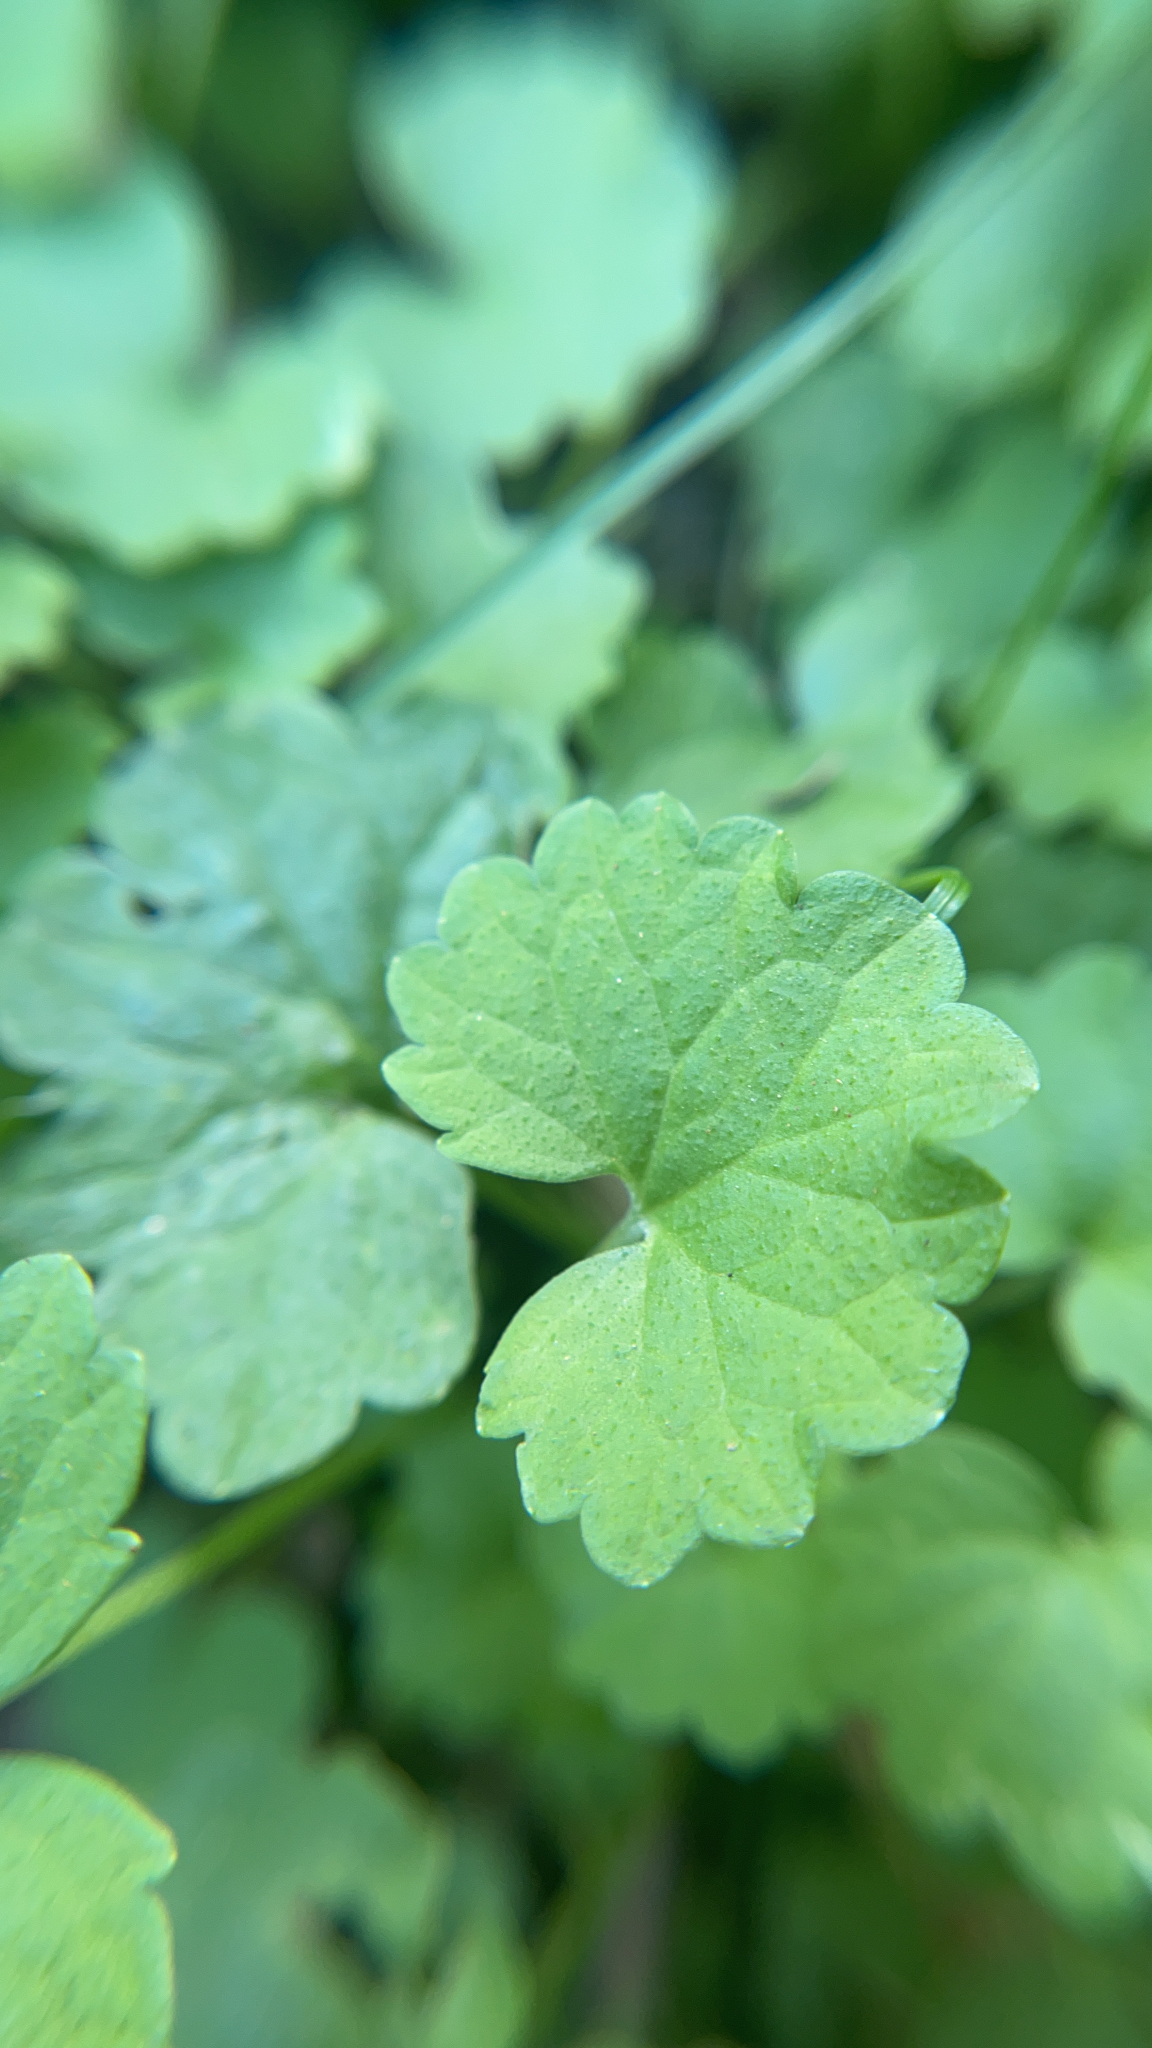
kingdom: Plantae
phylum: Tracheophyta
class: Magnoliopsida
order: Lamiales
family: Lamiaceae
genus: Glechoma
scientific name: Glechoma hederacea
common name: Ground ivy
